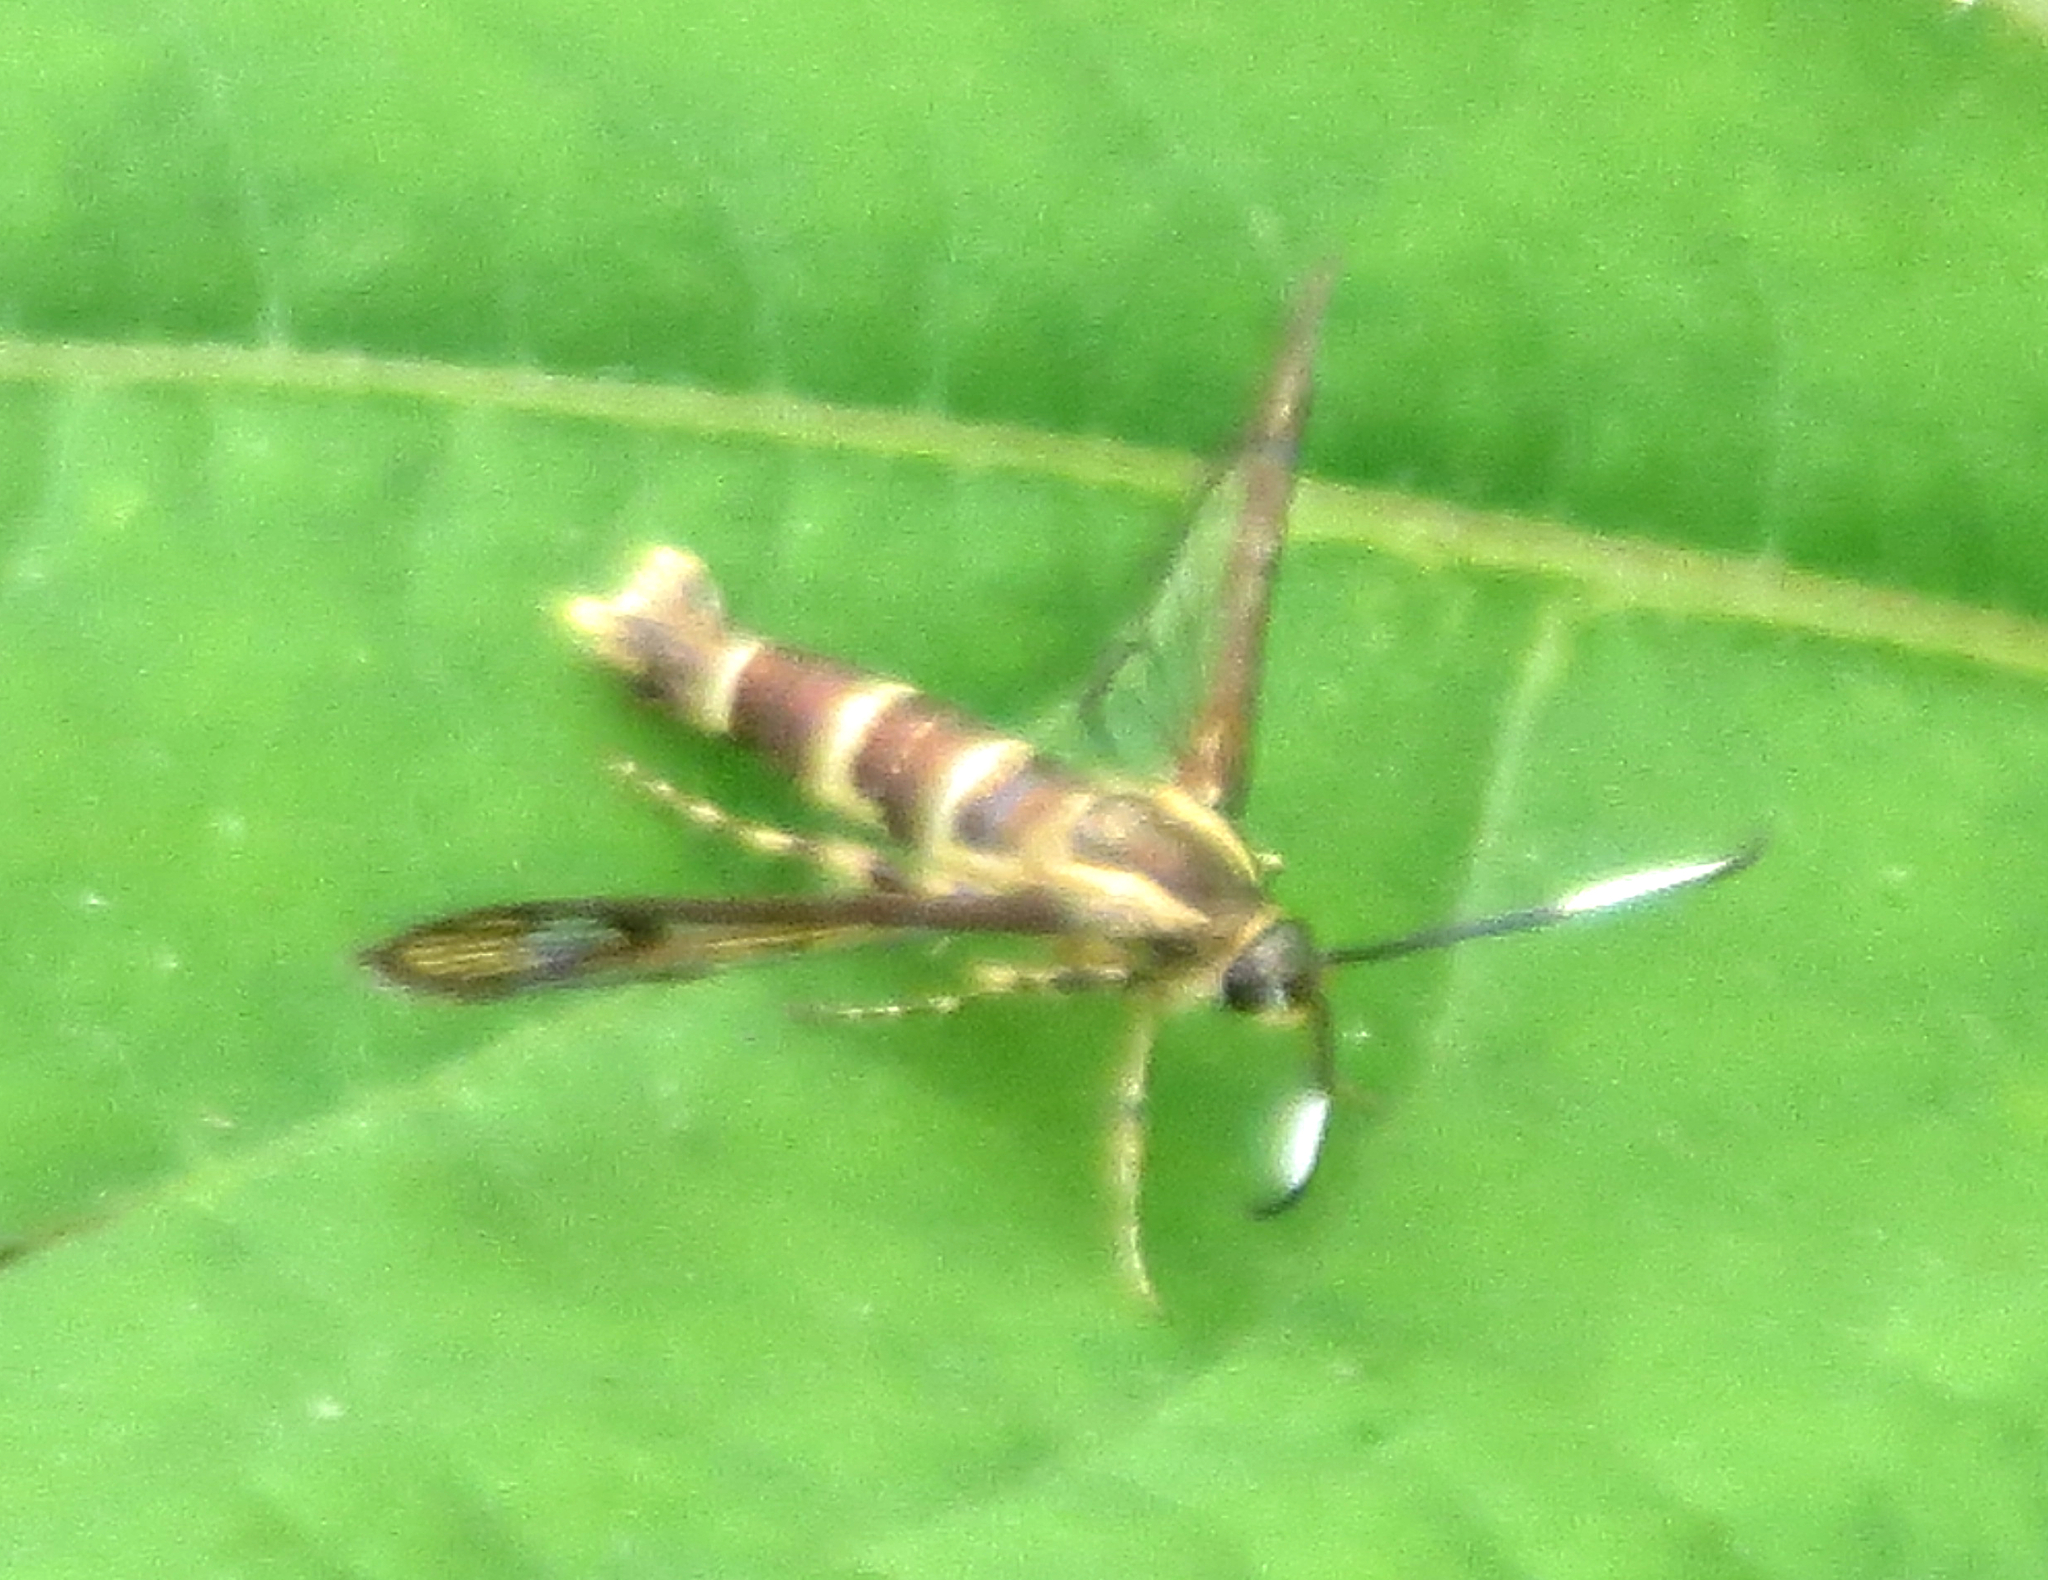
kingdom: Animalia
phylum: Arthropoda
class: Insecta
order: Lepidoptera
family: Sesiidae
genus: Carmenta
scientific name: Carmenta bassiformis
